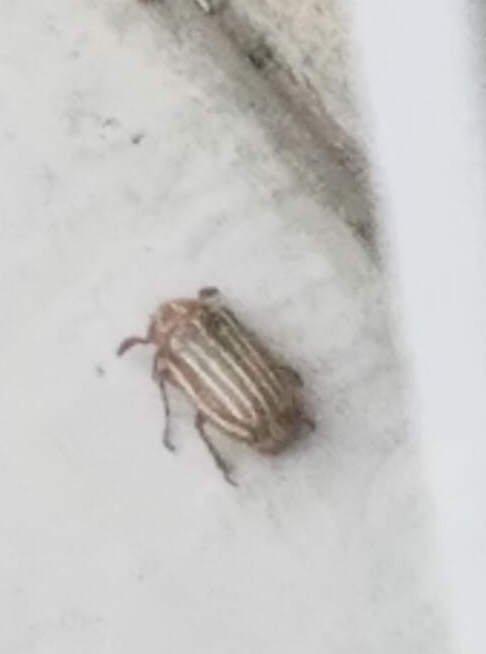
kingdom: Animalia
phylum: Arthropoda
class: Insecta
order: Coleoptera
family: Scarabaeidae
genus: Polyphylla
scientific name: Polyphylla decemlineata
